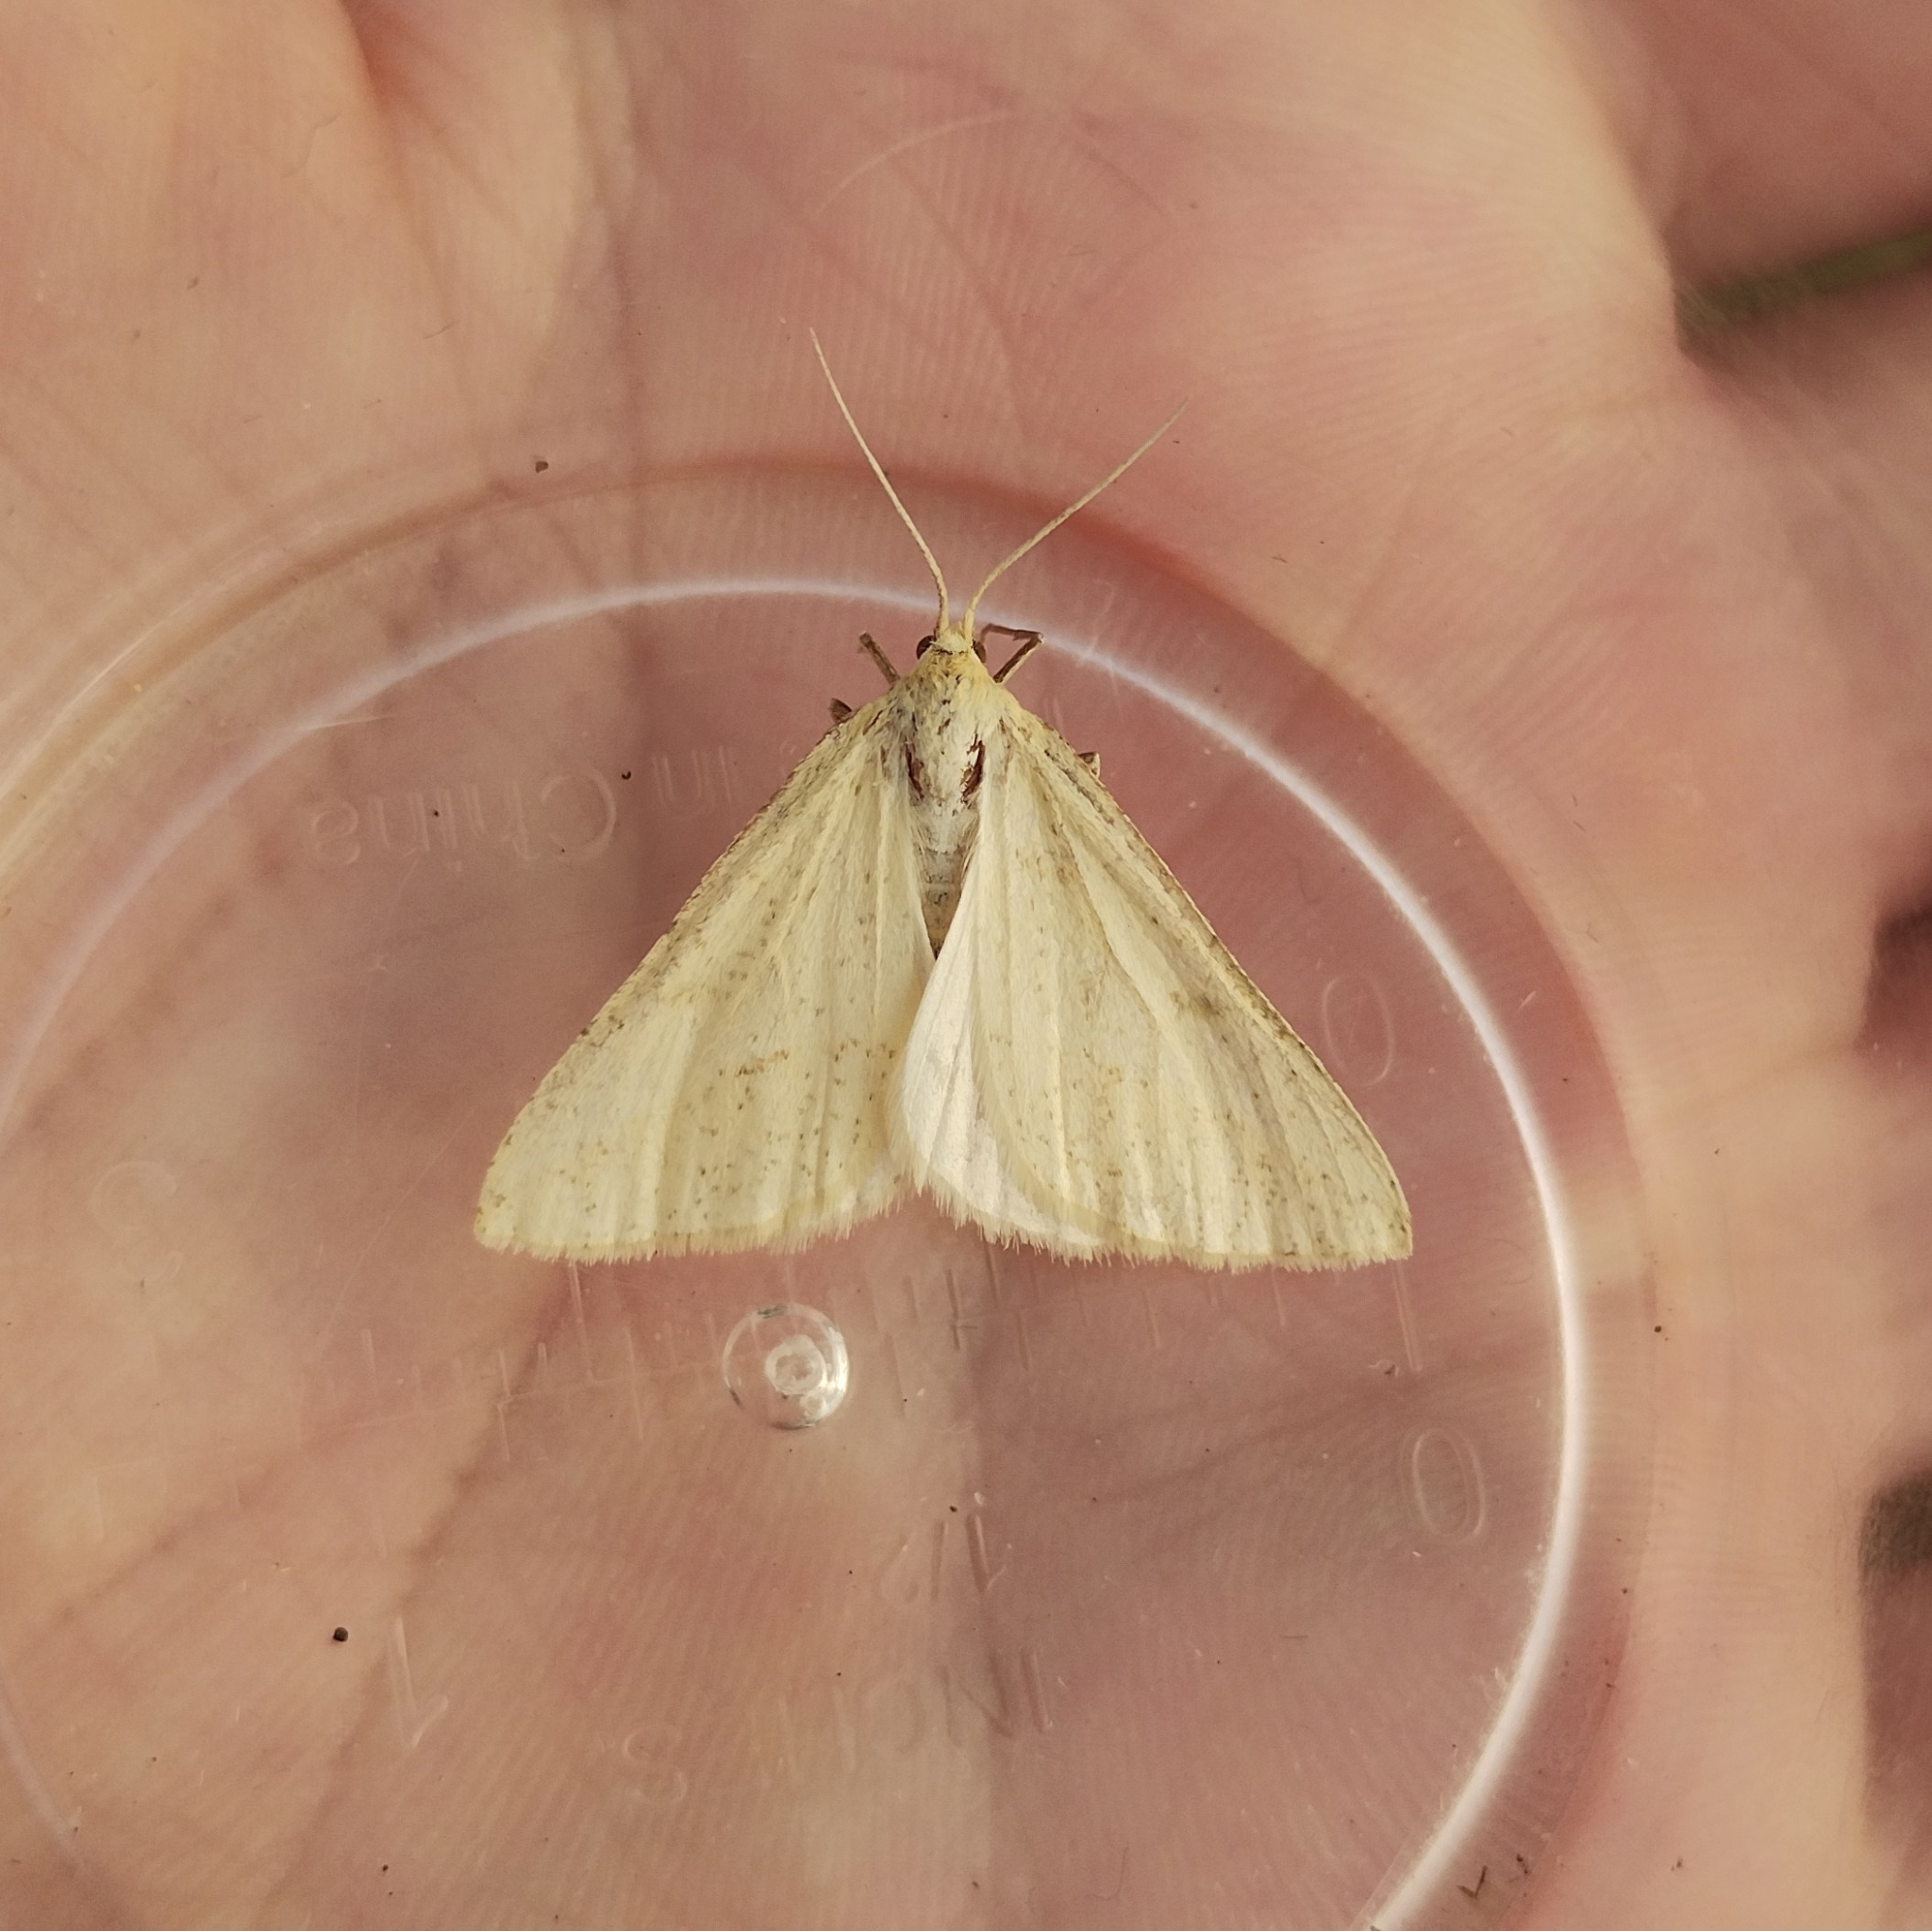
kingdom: Animalia
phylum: Arthropoda
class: Insecta
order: Lepidoptera
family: Geometridae
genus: Aspitates
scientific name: Aspitates gilvaria
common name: Straw belle
